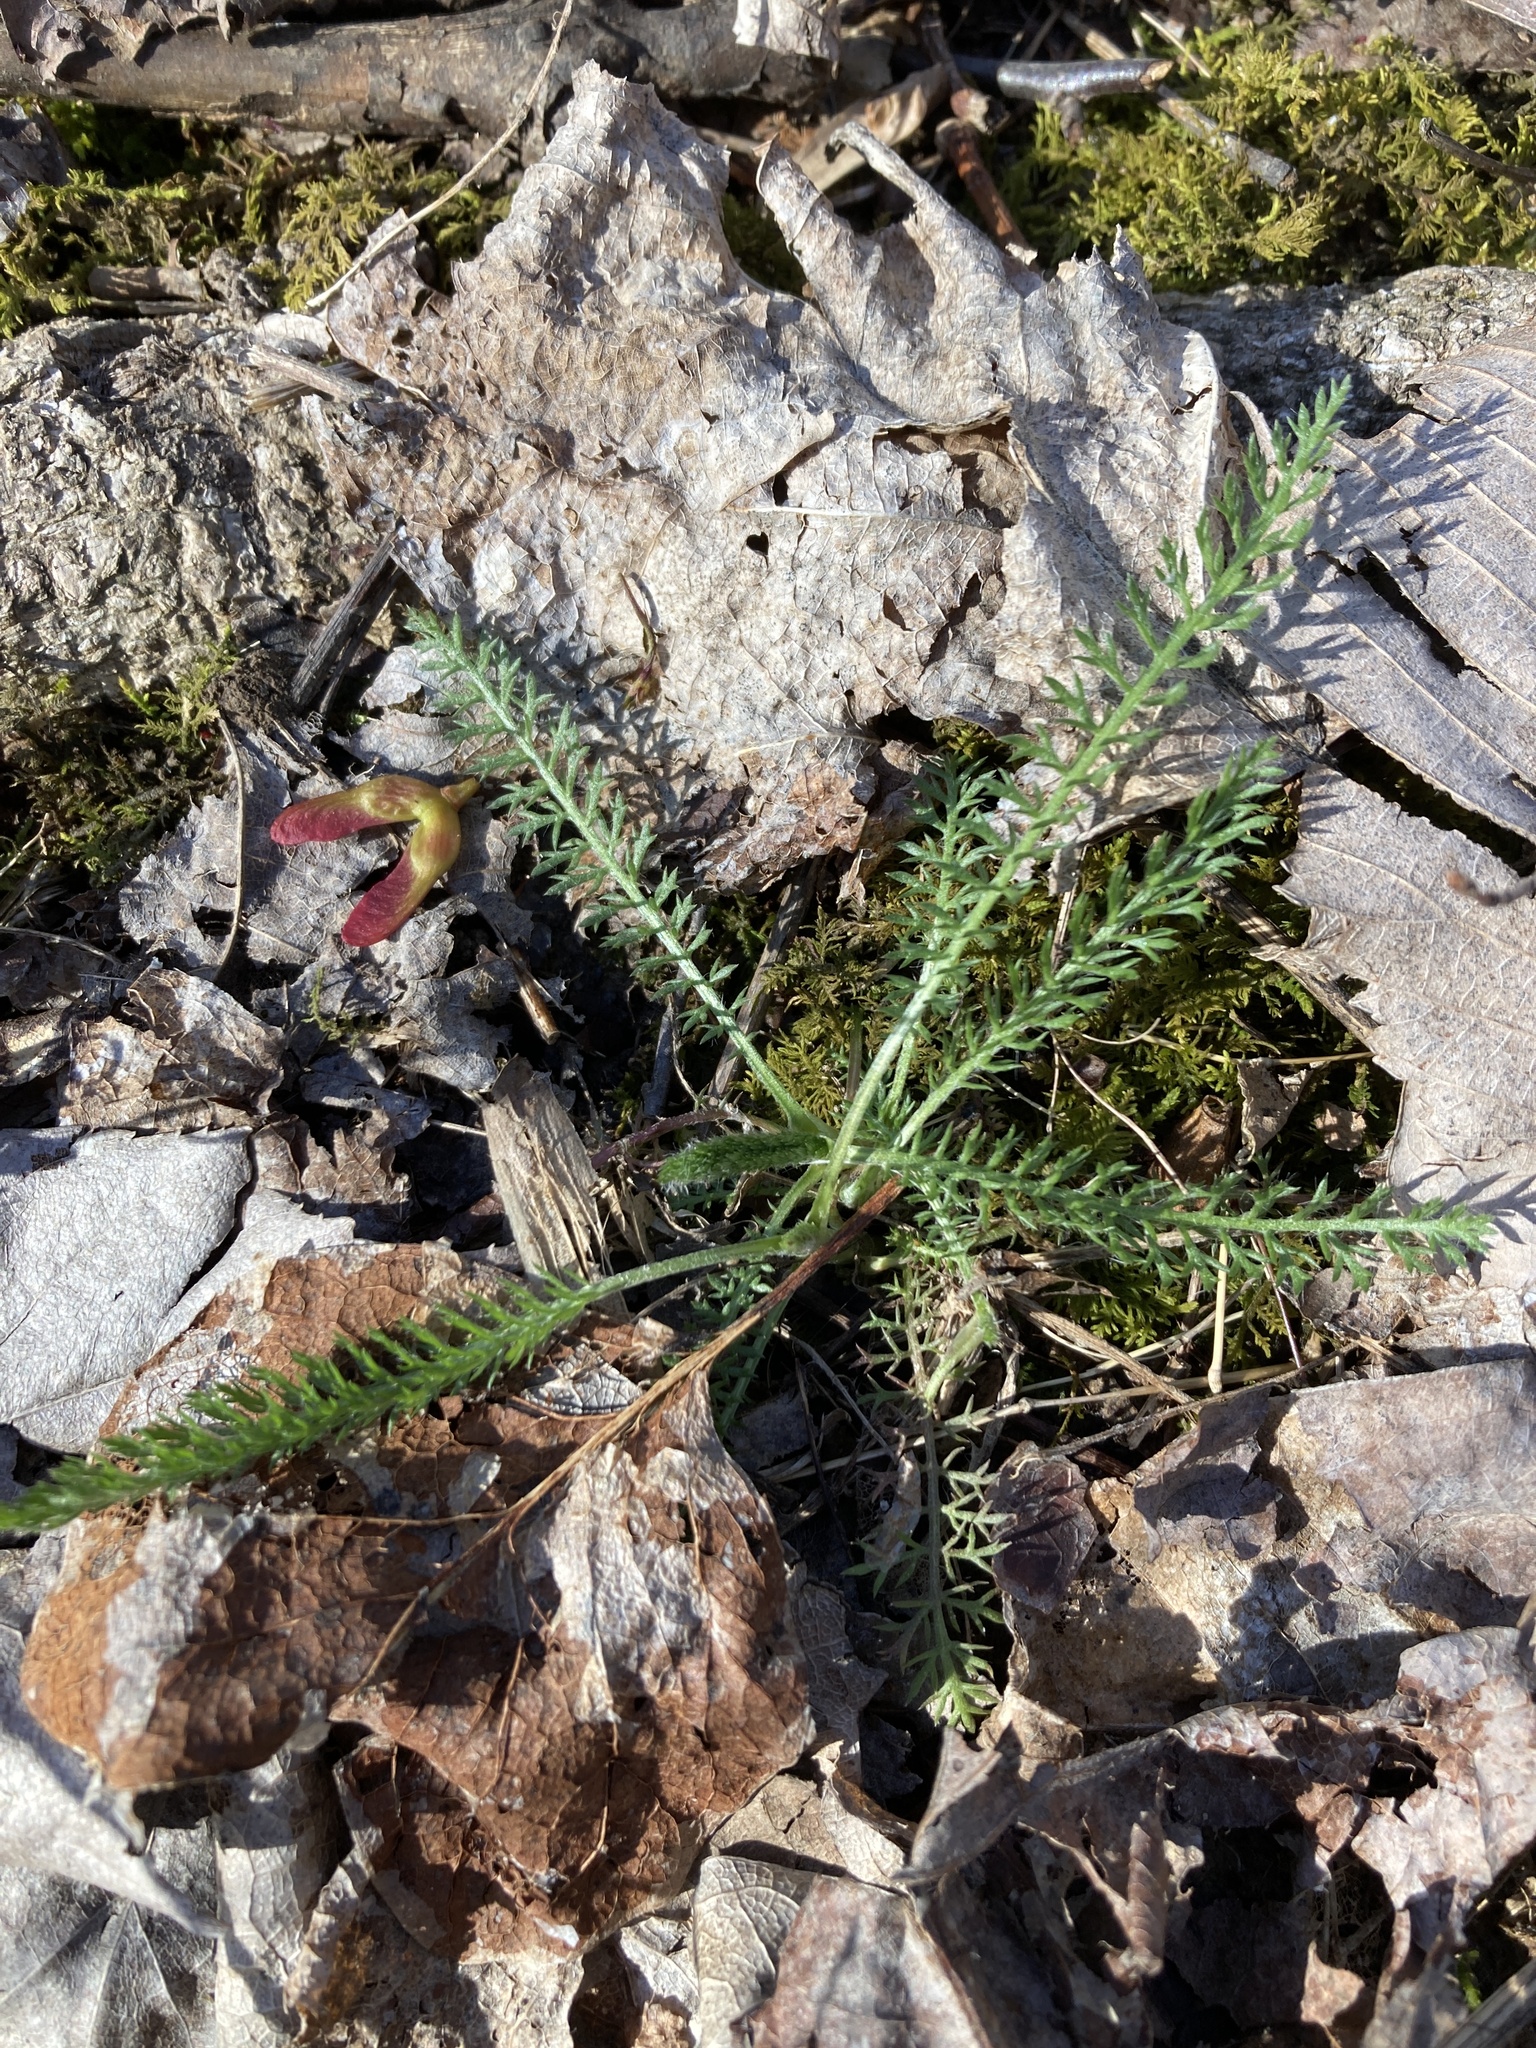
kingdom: Plantae
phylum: Tracheophyta
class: Magnoliopsida
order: Asterales
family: Asteraceae
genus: Achillea
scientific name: Achillea millefolium
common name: Yarrow
